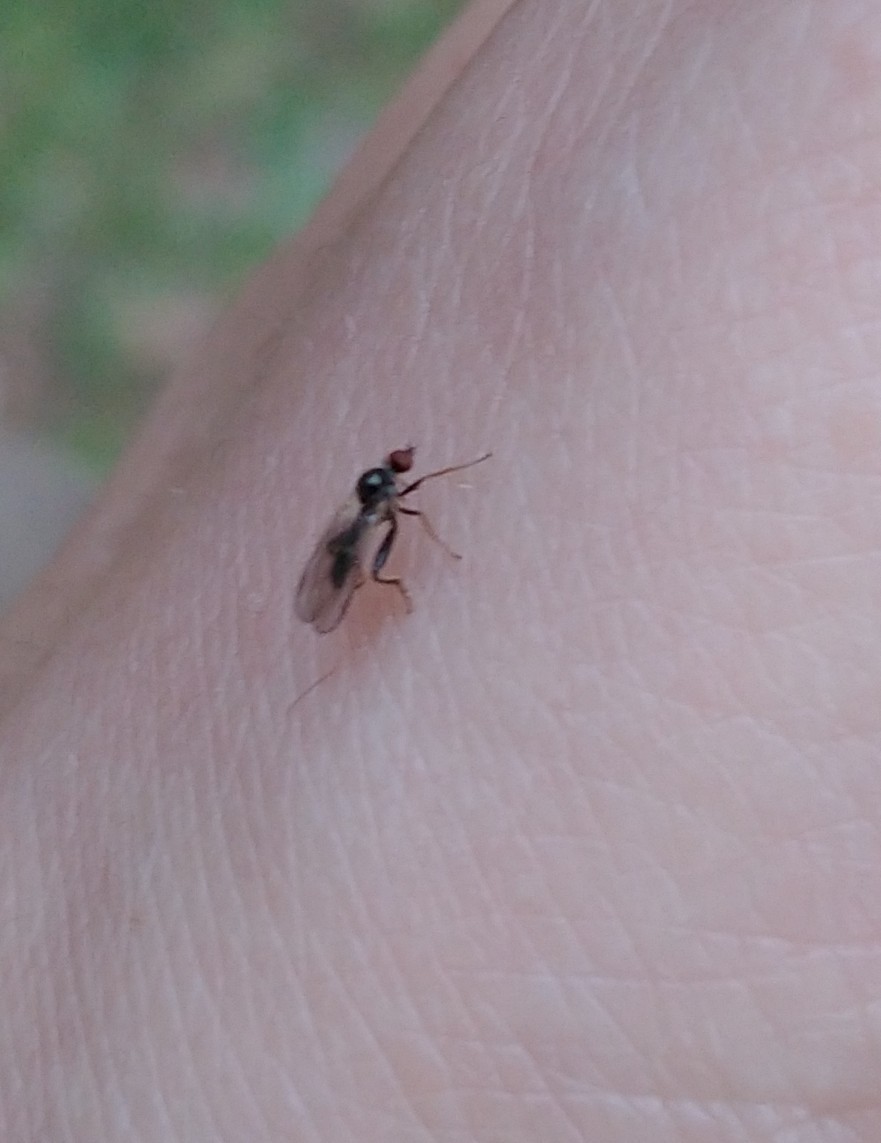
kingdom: Animalia
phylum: Arthropoda
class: Insecta
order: Diptera
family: Hybotidae
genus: Hybos
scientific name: Hybos reversus
